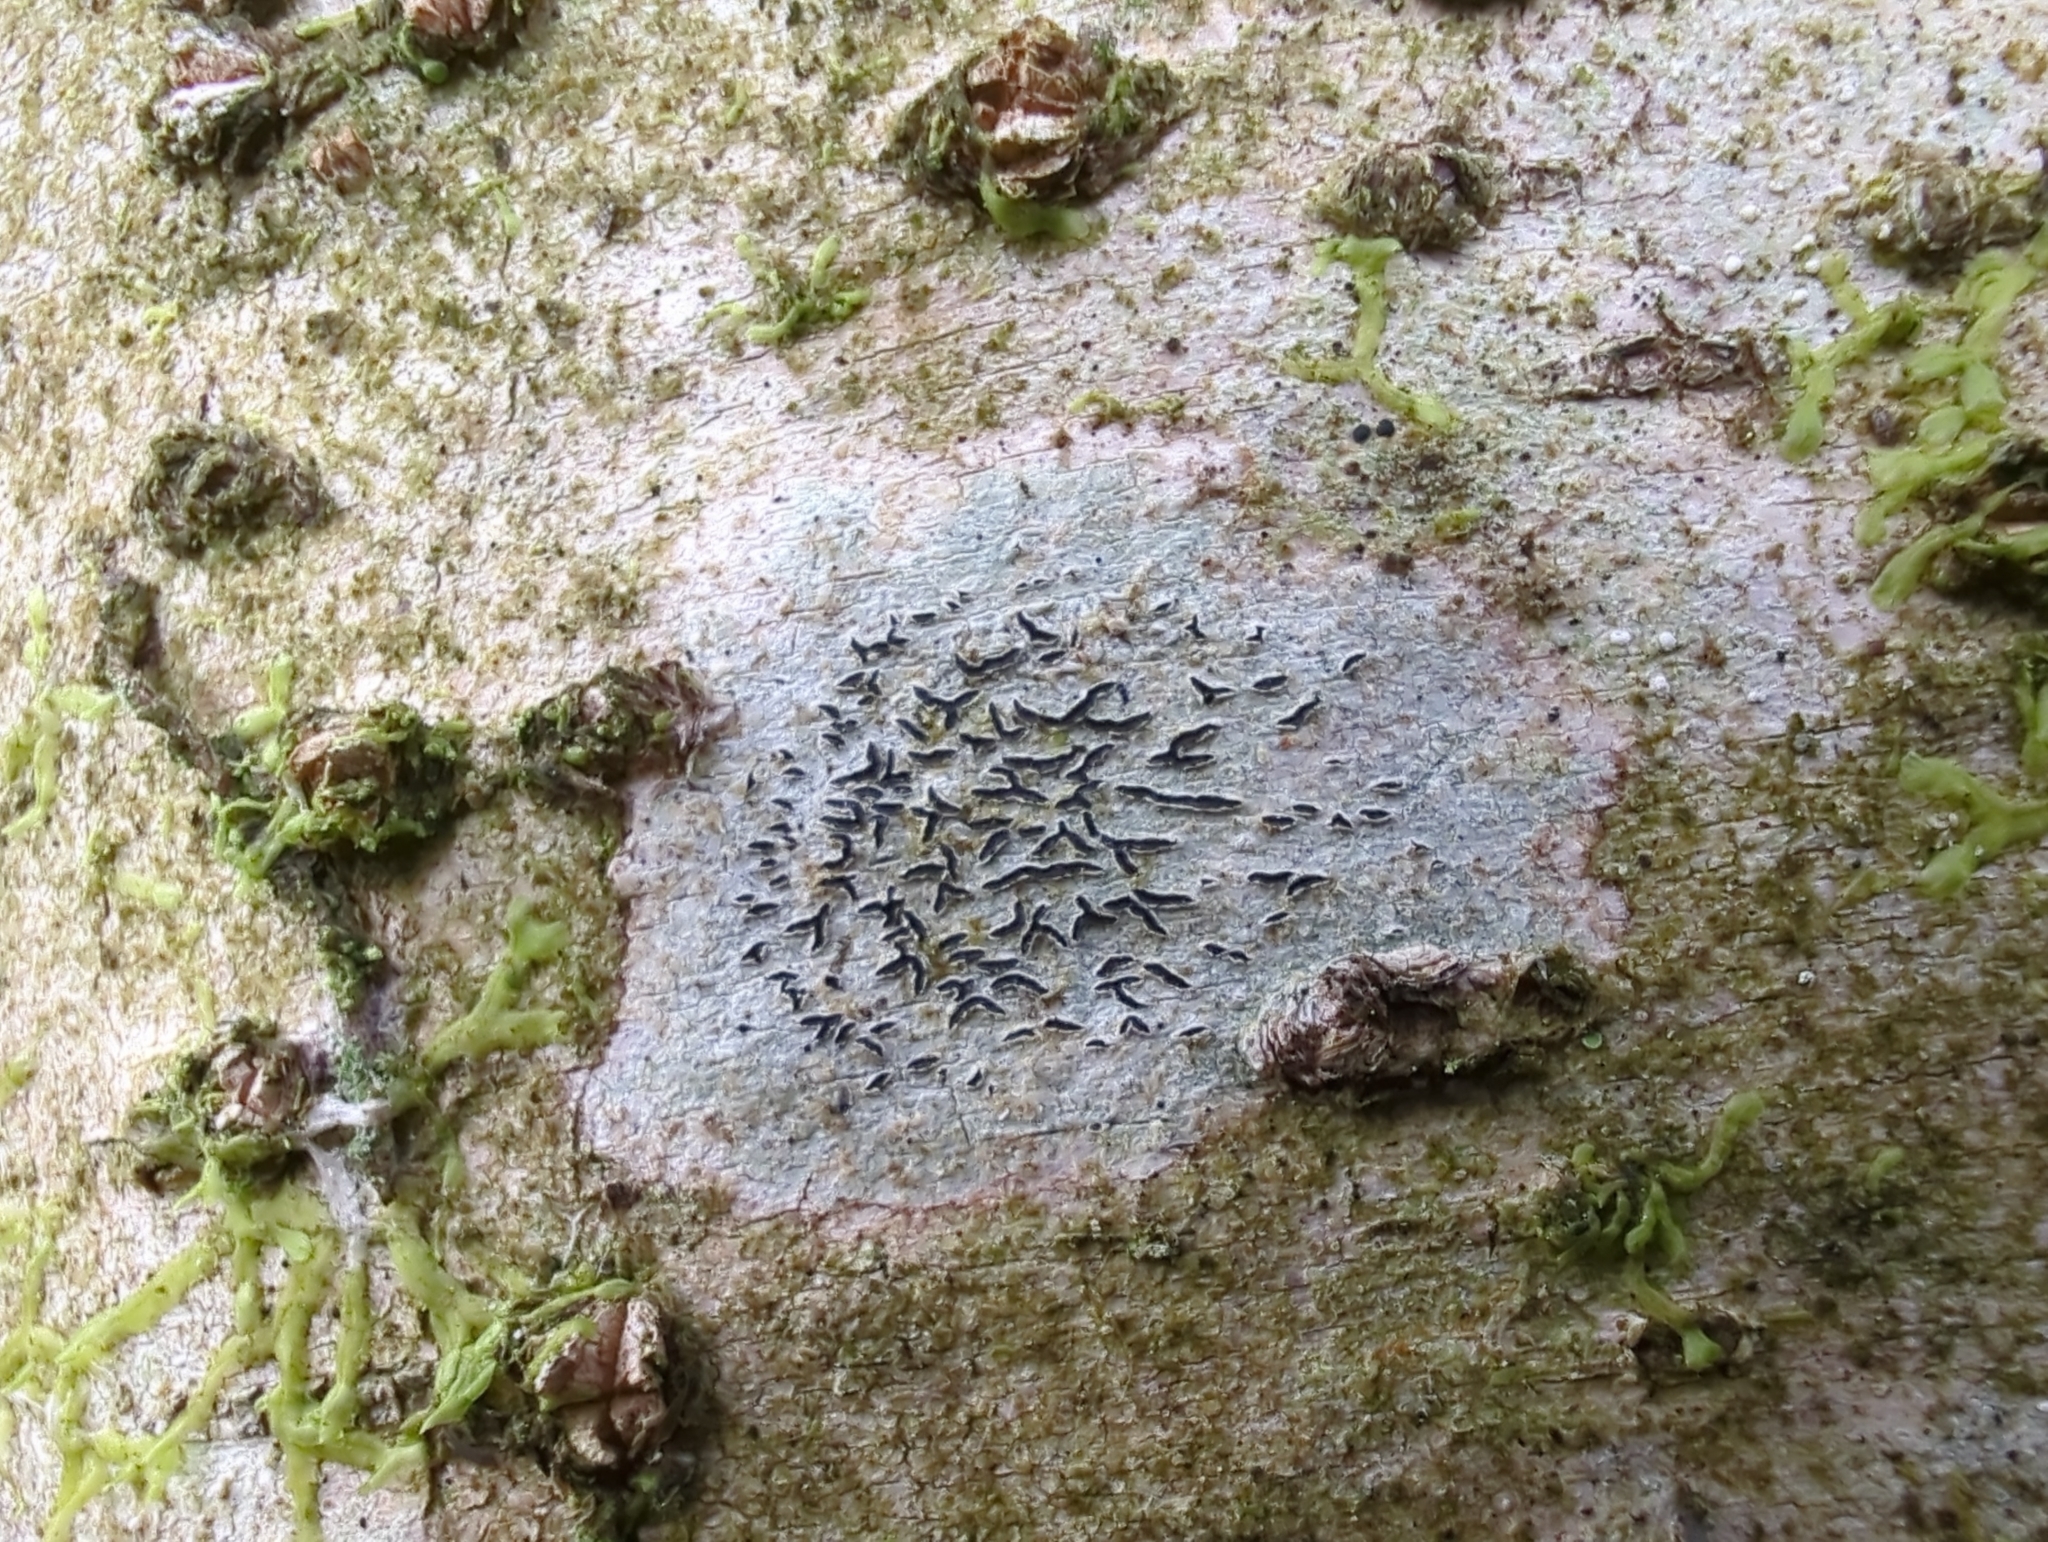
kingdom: Fungi
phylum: Ascomycota
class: Lecanoromycetes
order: Ostropales
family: Graphidaceae
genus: Graphis
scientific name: Graphis scripta
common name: Script lichen
